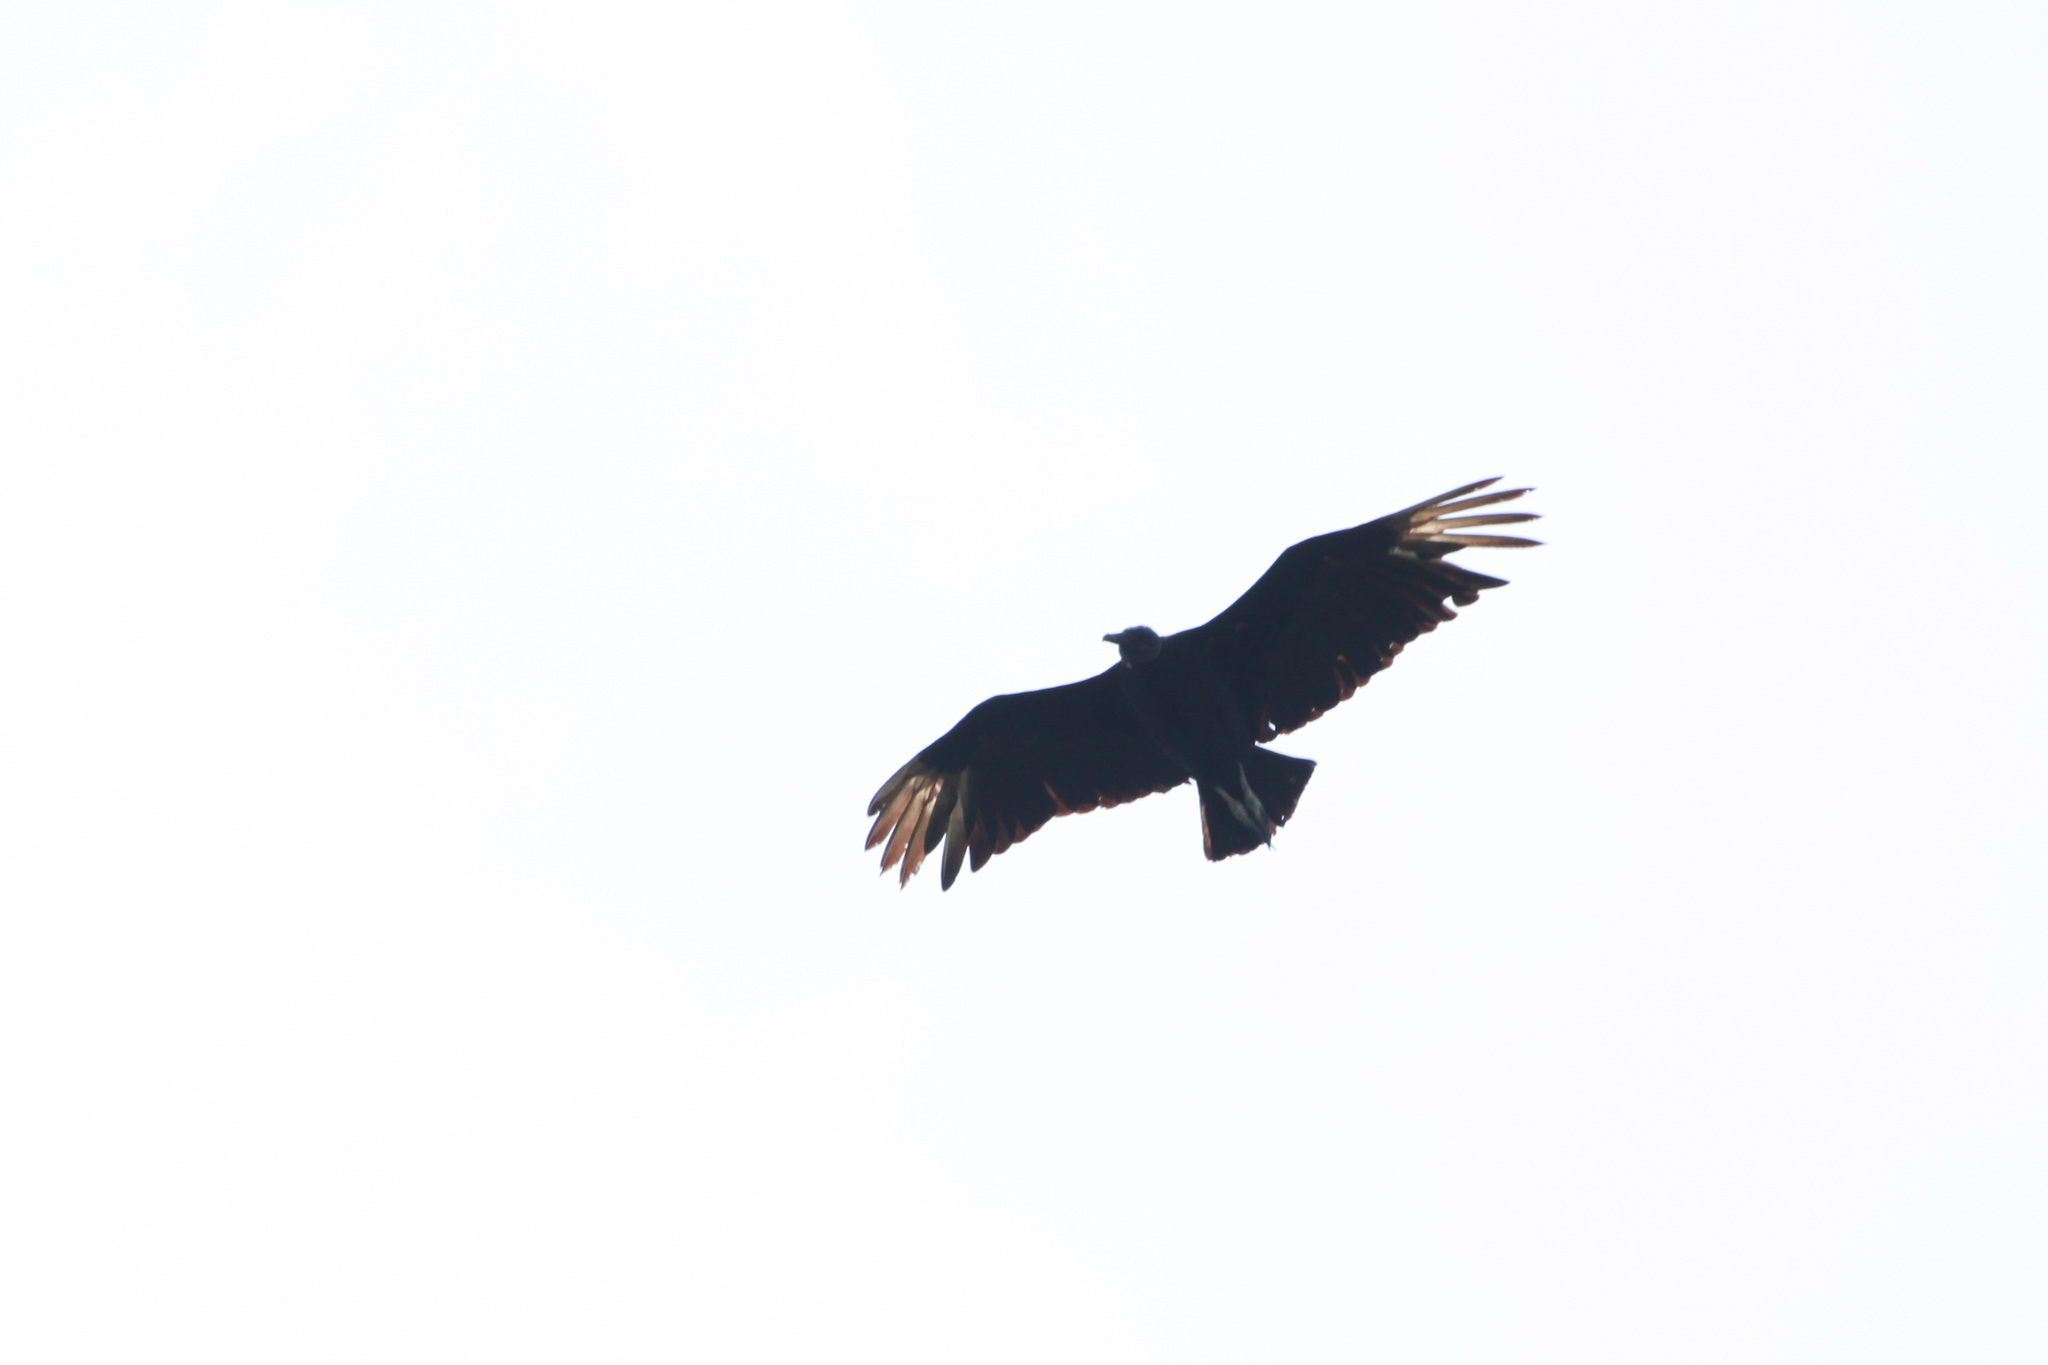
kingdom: Animalia
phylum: Chordata
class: Aves
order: Accipitriformes
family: Cathartidae
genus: Coragyps
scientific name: Coragyps atratus
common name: Black vulture
